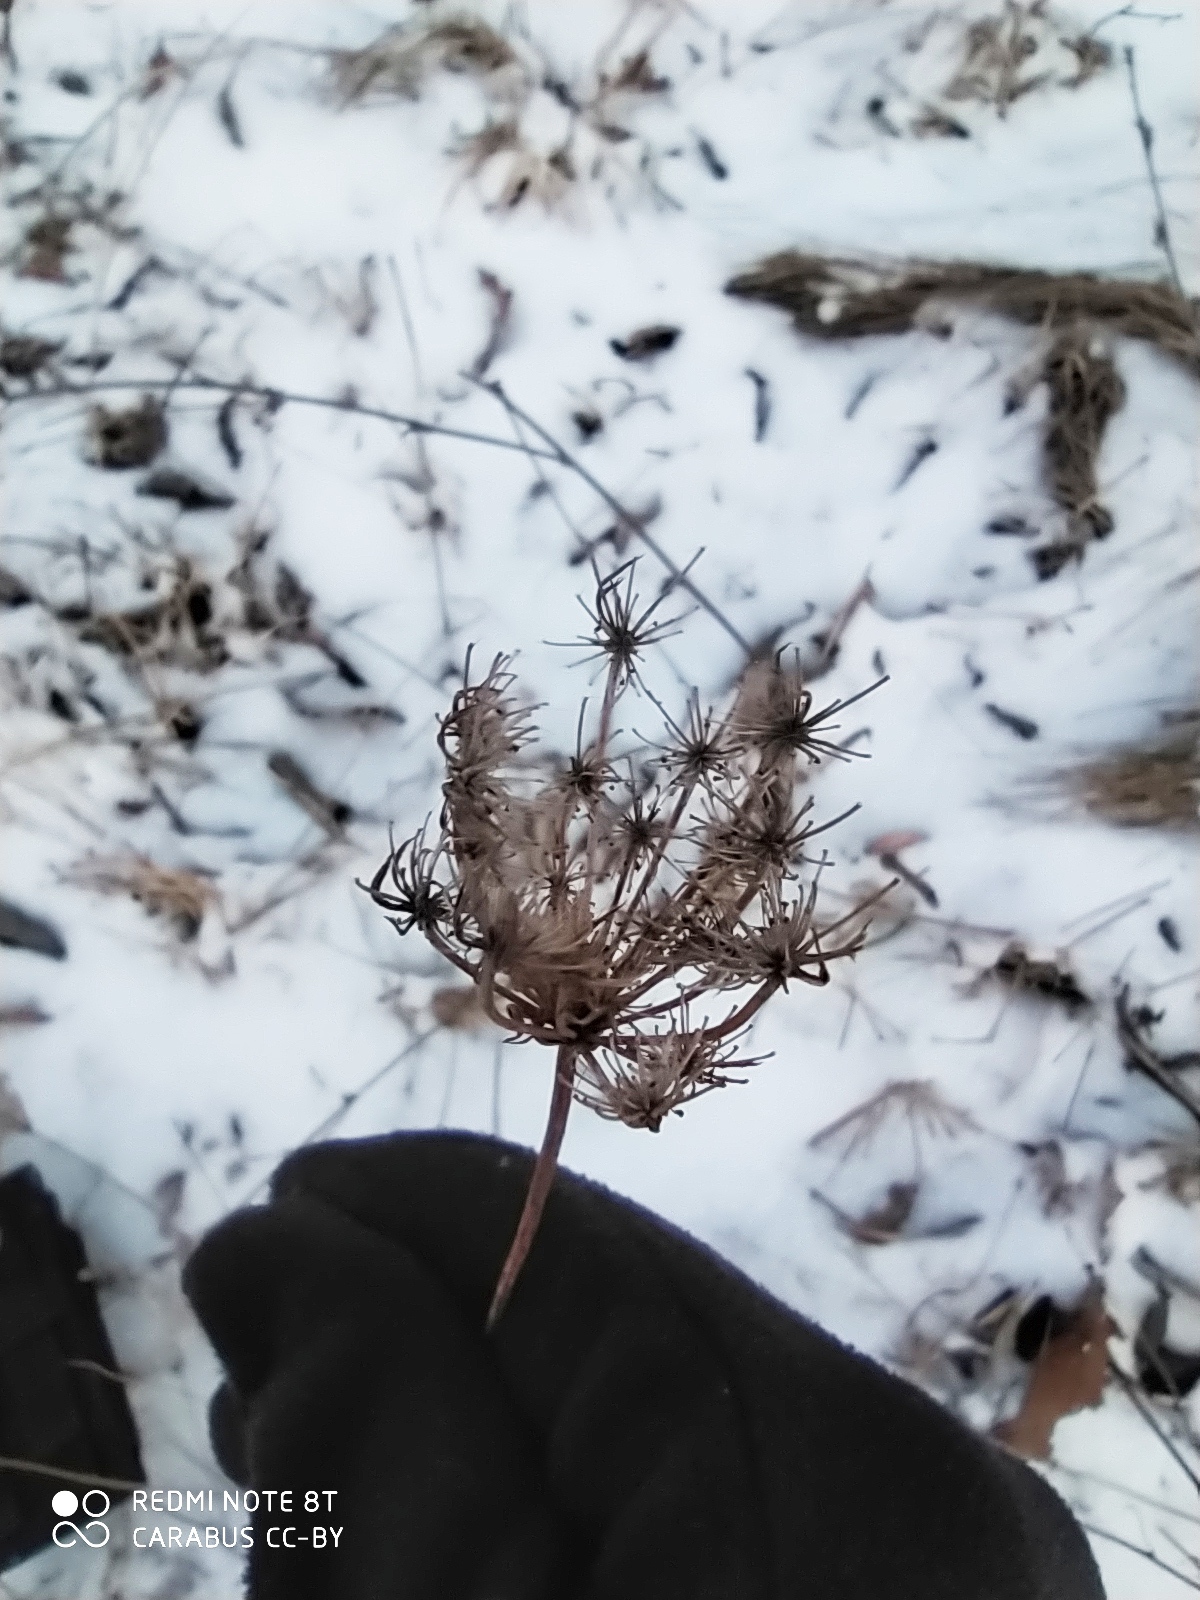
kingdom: Plantae
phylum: Tracheophyta
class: Magnoliopsida
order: Apiales
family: Apiaceae
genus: Daucus
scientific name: Daucus carota
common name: Wild carrot
